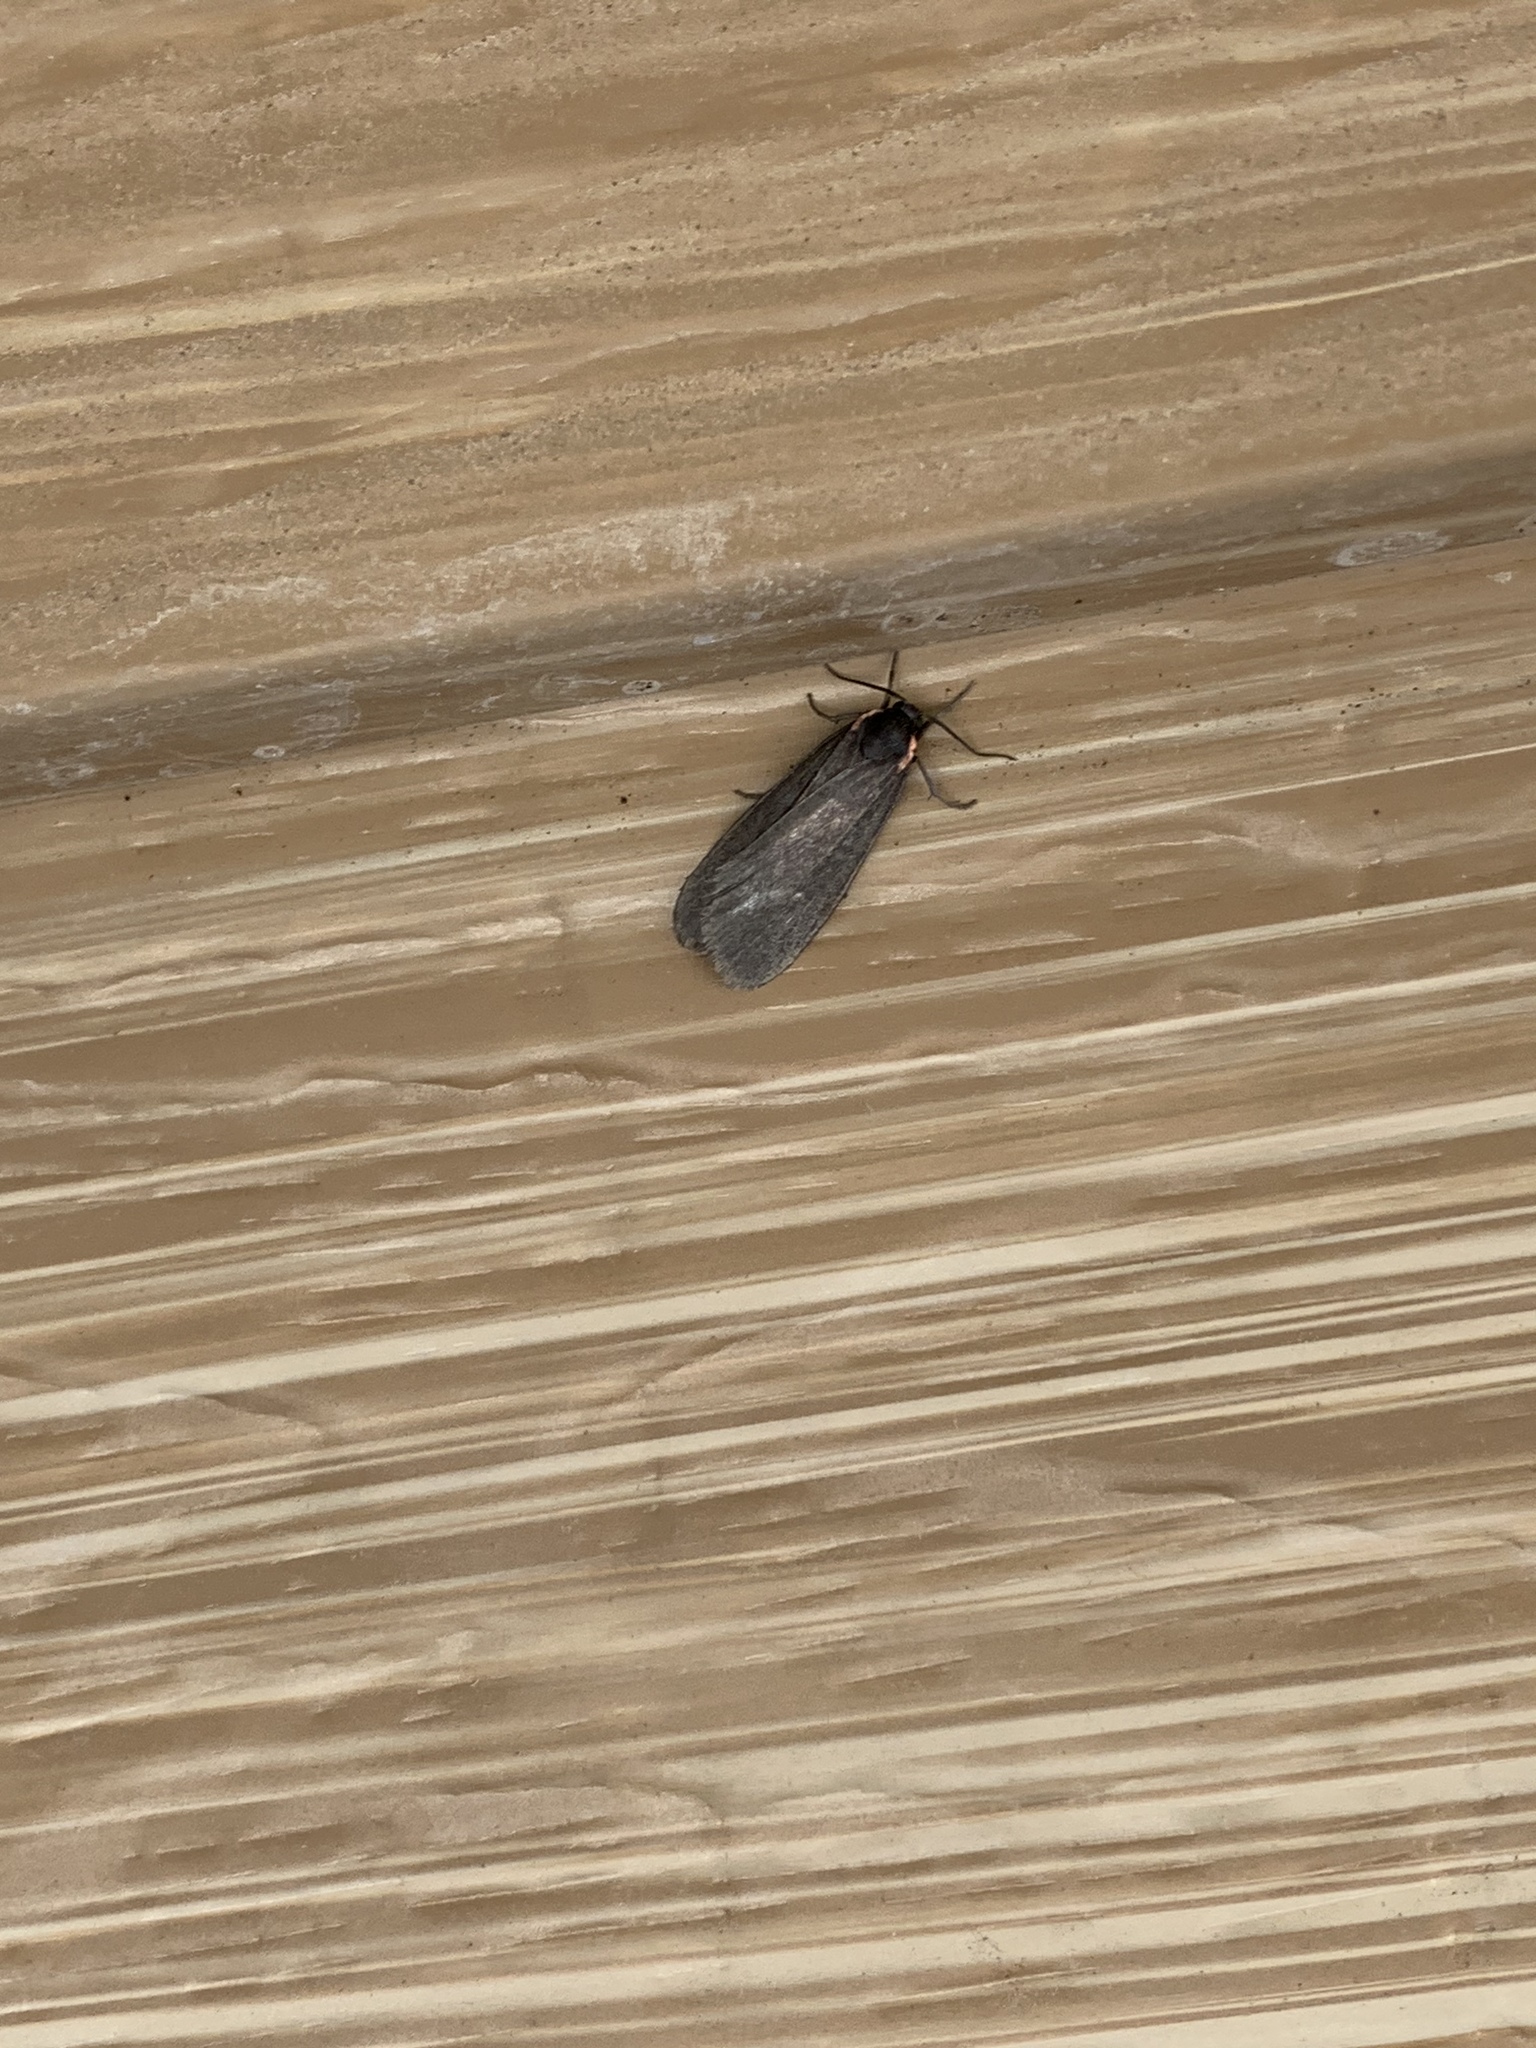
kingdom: Animalia
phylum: Arthropoda
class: Insecta
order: Lepidoptera
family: Erebidae
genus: Hypoprepia
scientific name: Hypoprepia inculta
